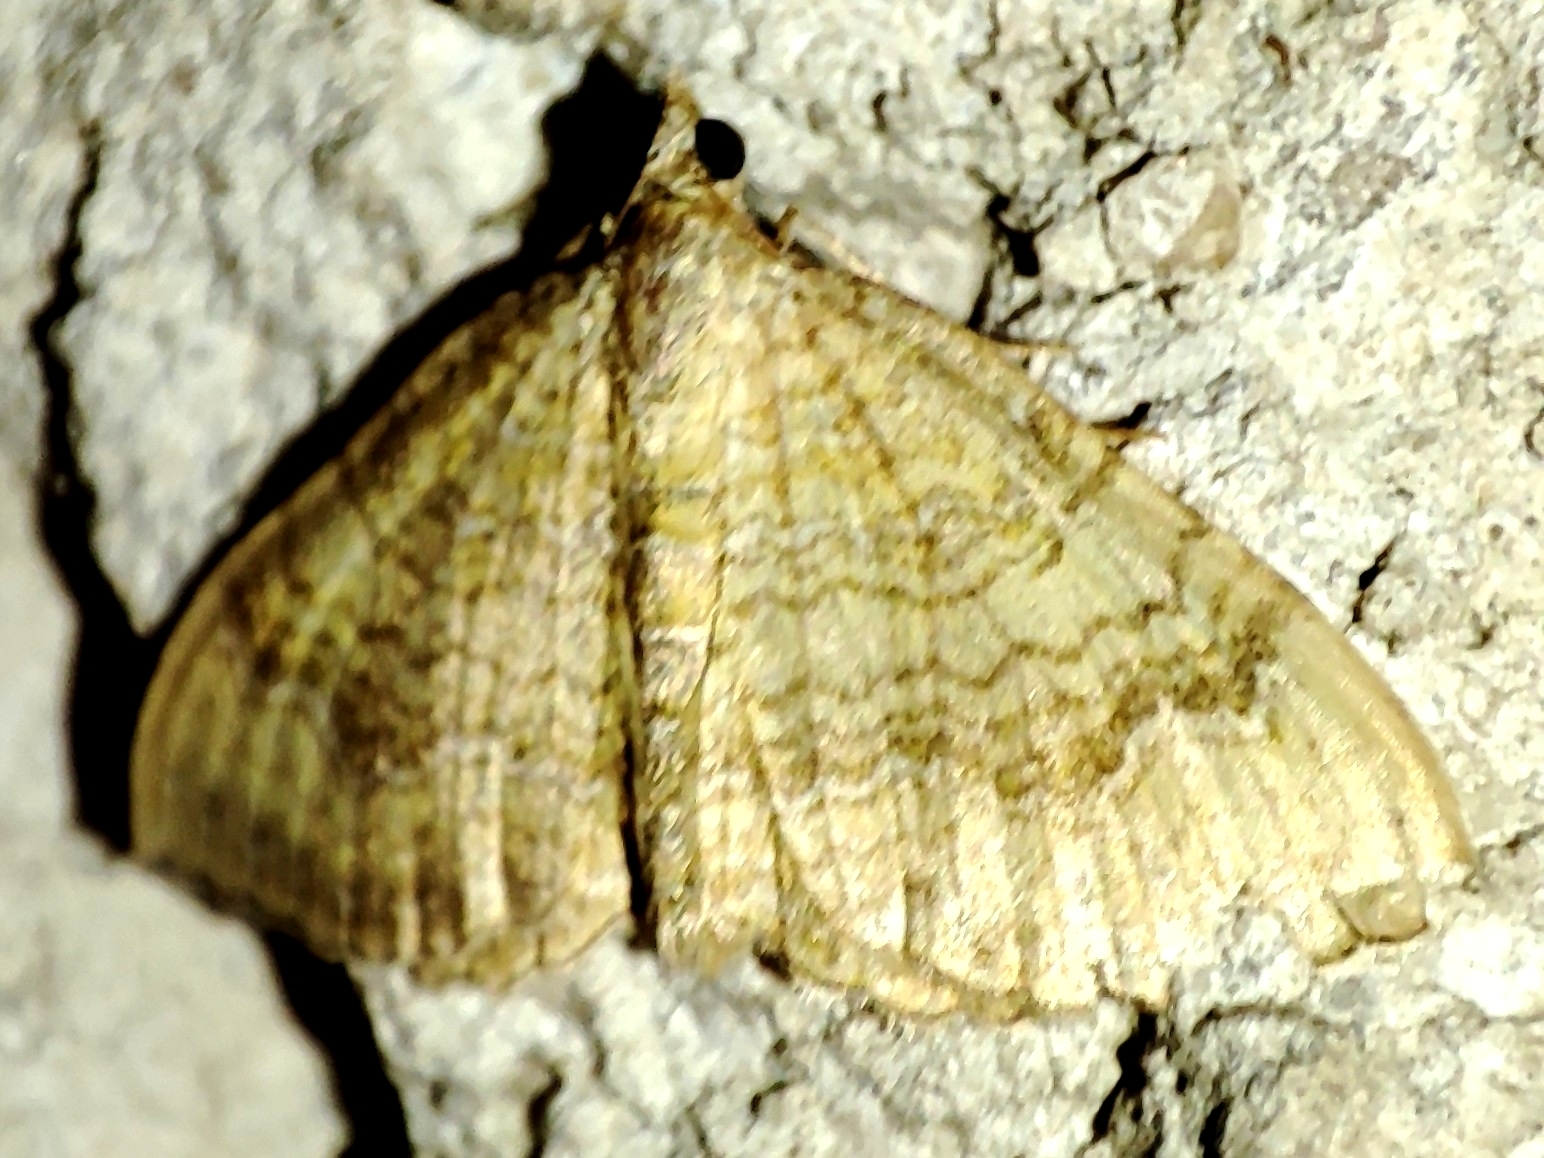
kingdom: Animalia
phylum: Arthropoda
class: Insecta
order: Lepidoptera
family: Geometridae
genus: Camptogramma
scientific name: Camptogramma bilineata
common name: Yellow shell
